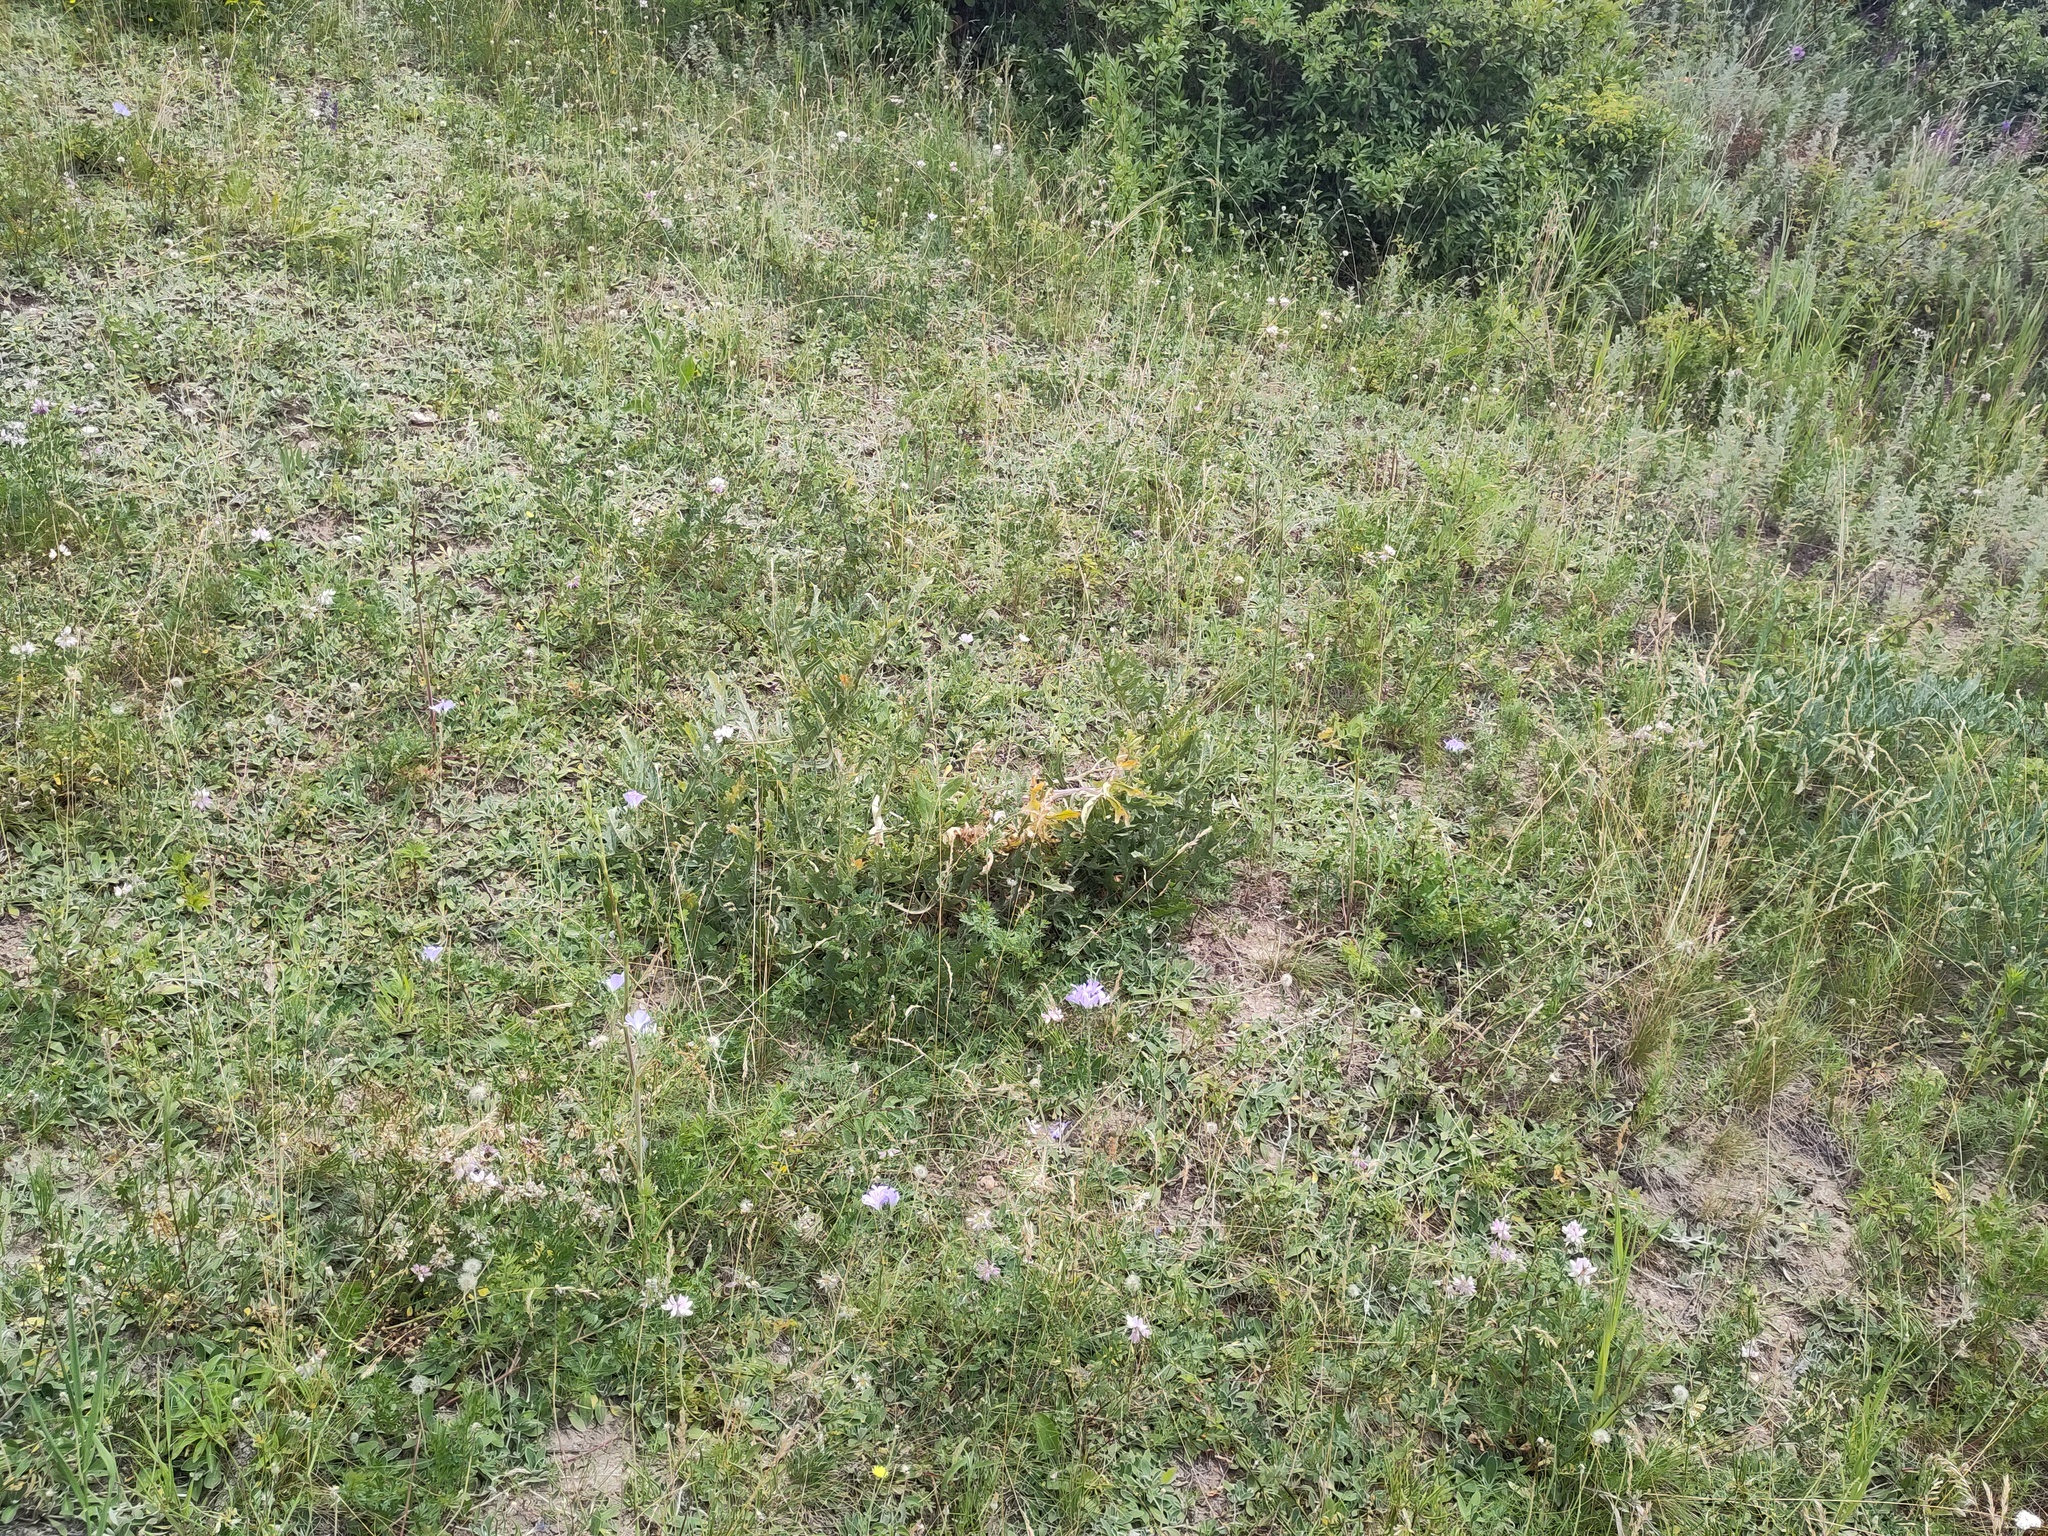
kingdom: Plantae
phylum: Tracheophyta
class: Magnoliopsida
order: Brassicales
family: Brassicaceae
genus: Crambe
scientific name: Crambe tataria
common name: Tartarian breadplant
